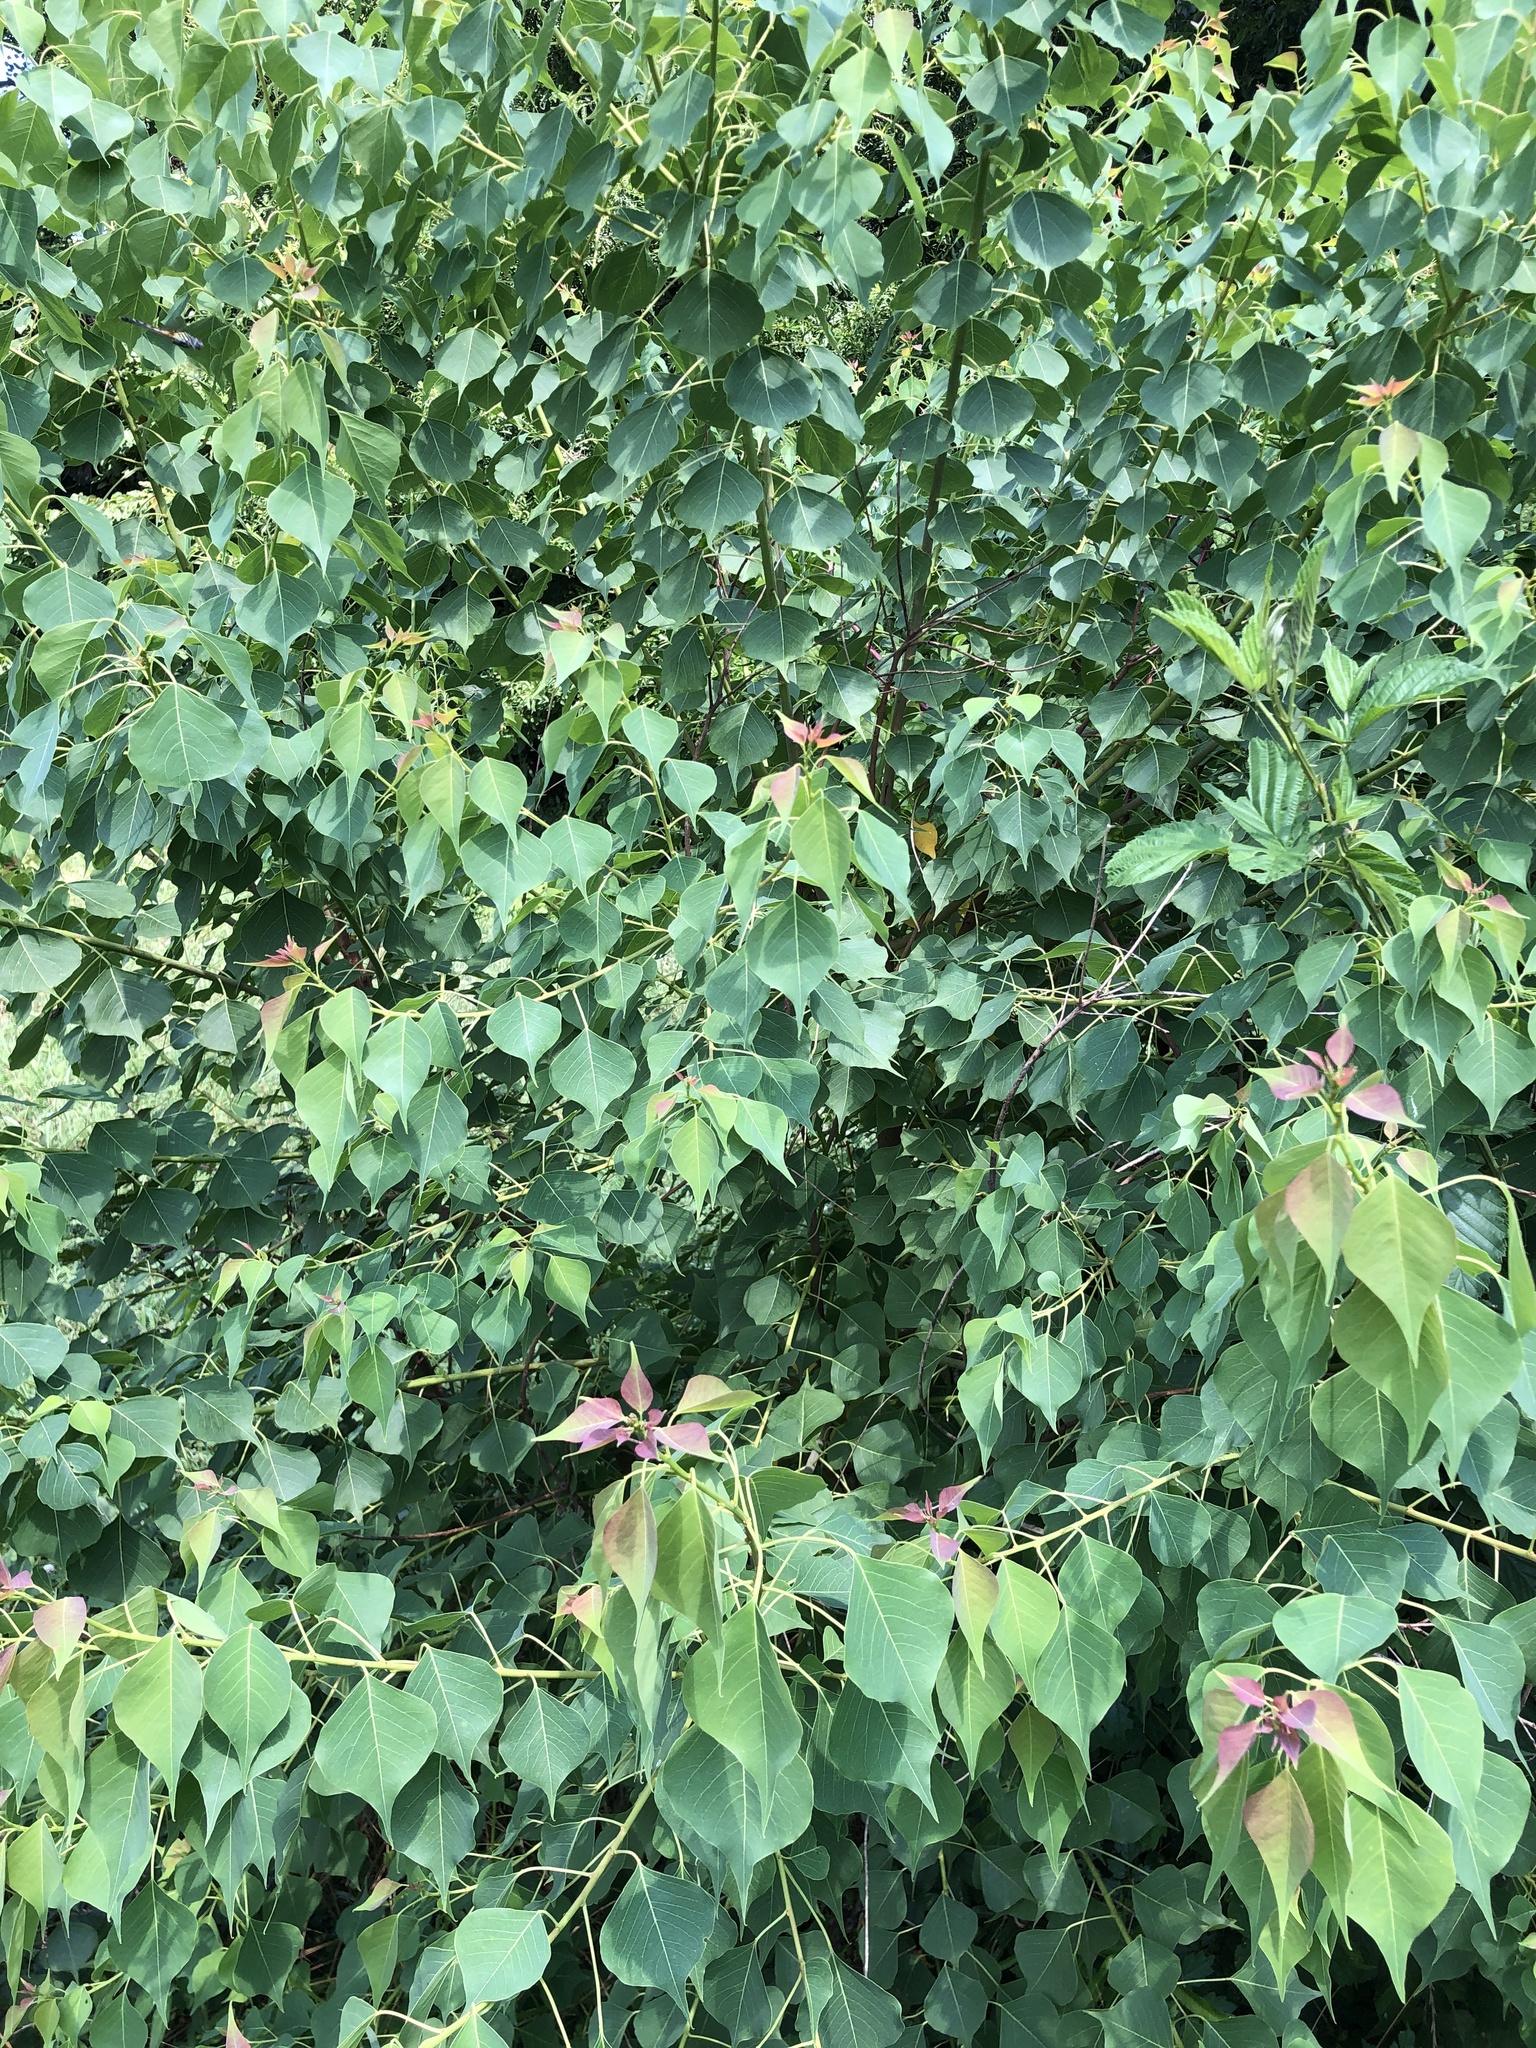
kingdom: Plantae
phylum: Tracheophyta
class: Magnoliopsida
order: Malpighiales
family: Euphorbiaceae
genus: Triadica
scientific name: Triadica sebifera
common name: Chinese tallow
